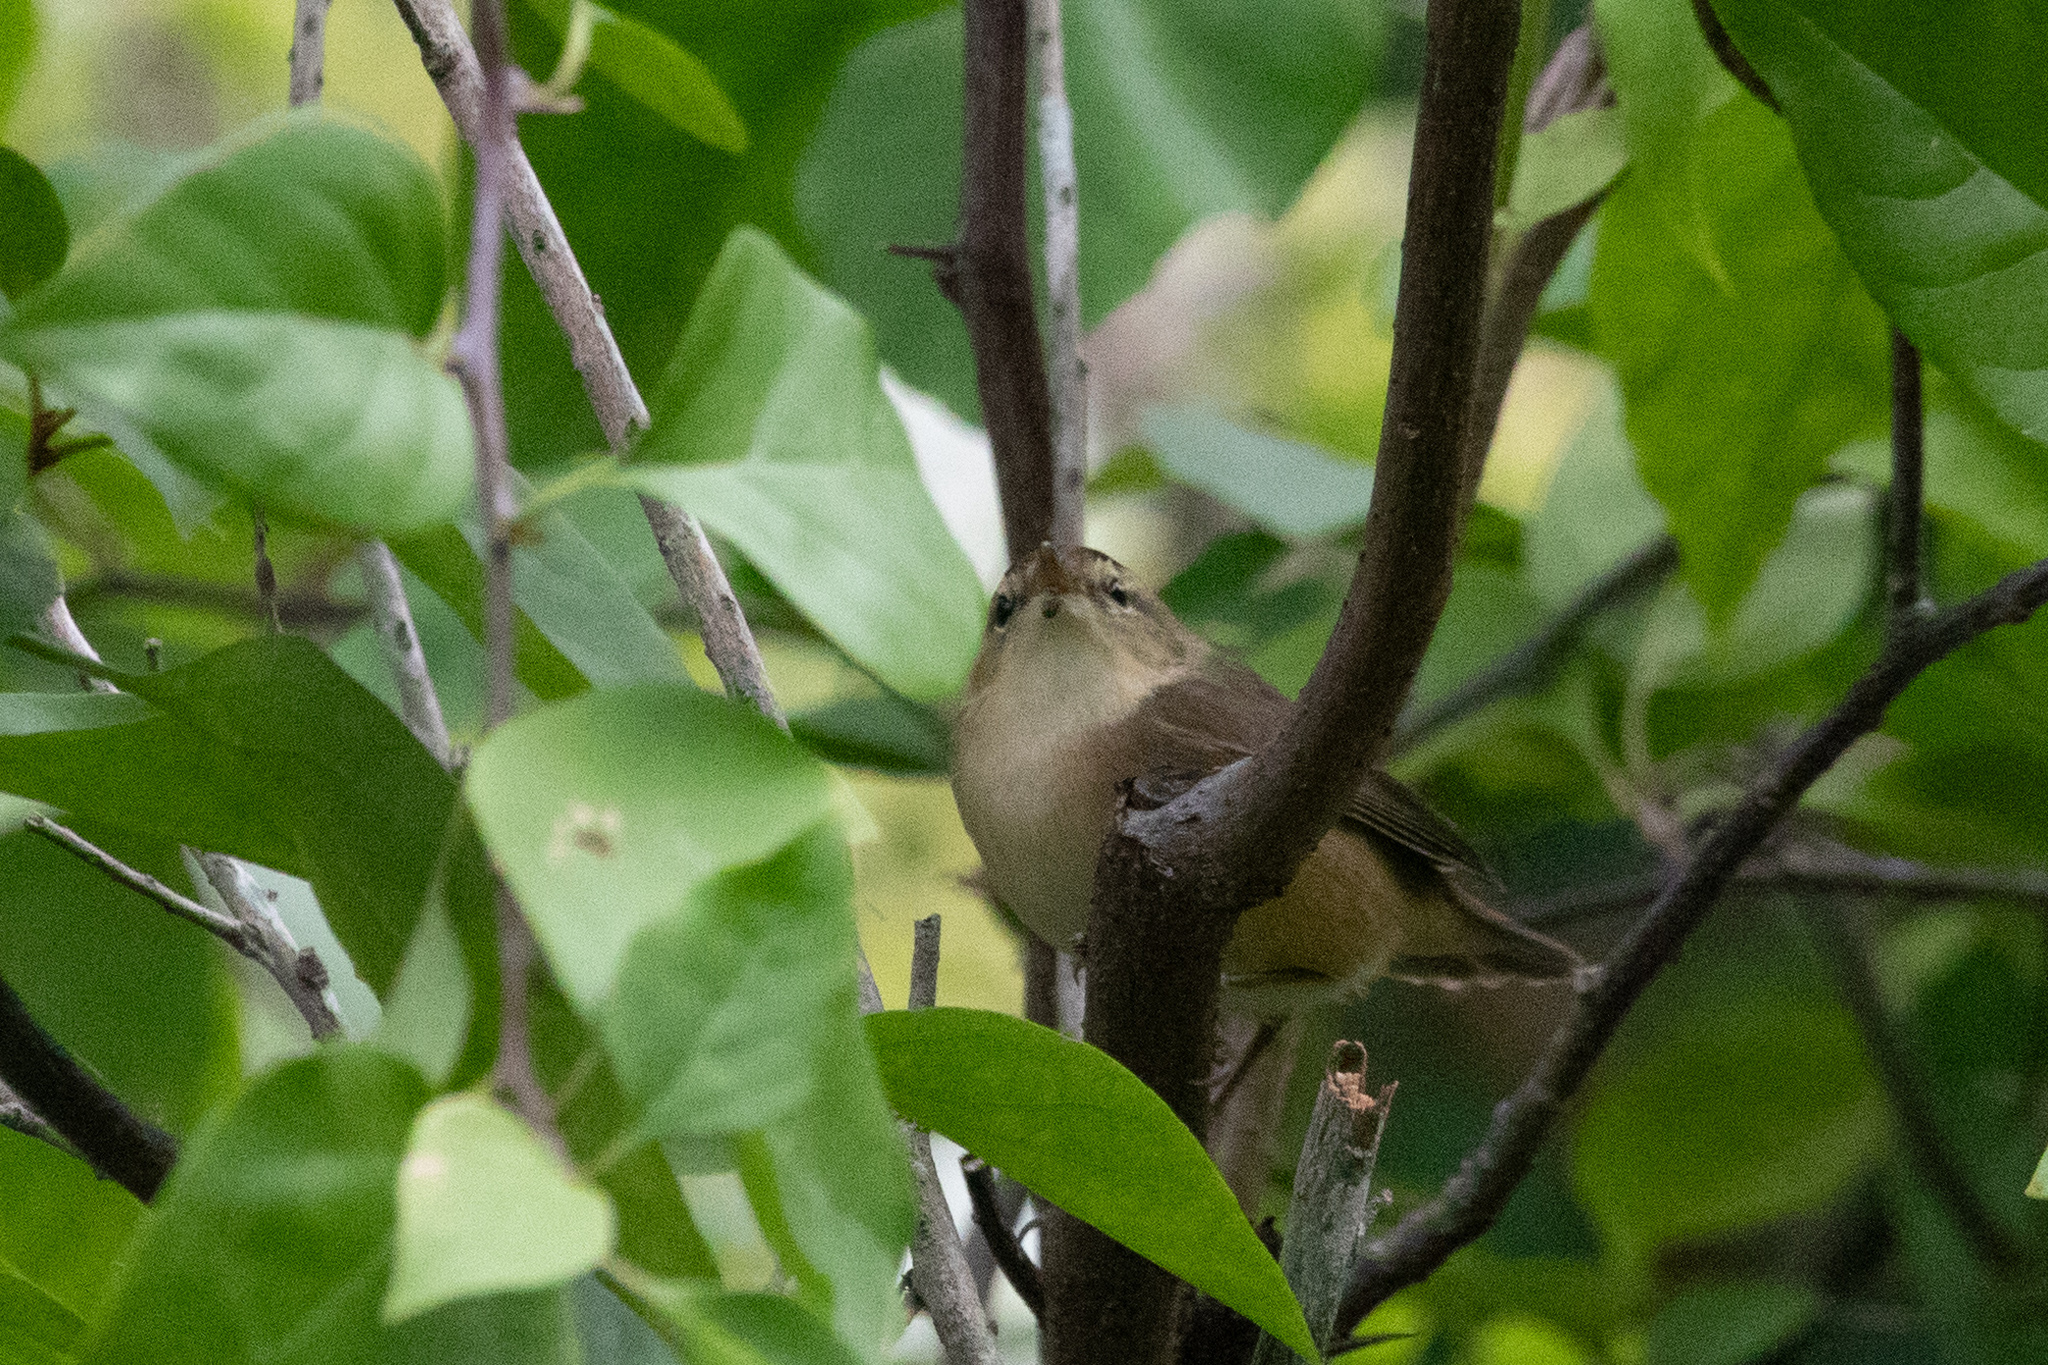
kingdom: Animalia
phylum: Chordata
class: Aves
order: Passeriformes
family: Acrocephalidae
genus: Acrocephalus
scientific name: Acrocephalus bistrigiceps
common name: Black-browed reed warbler
